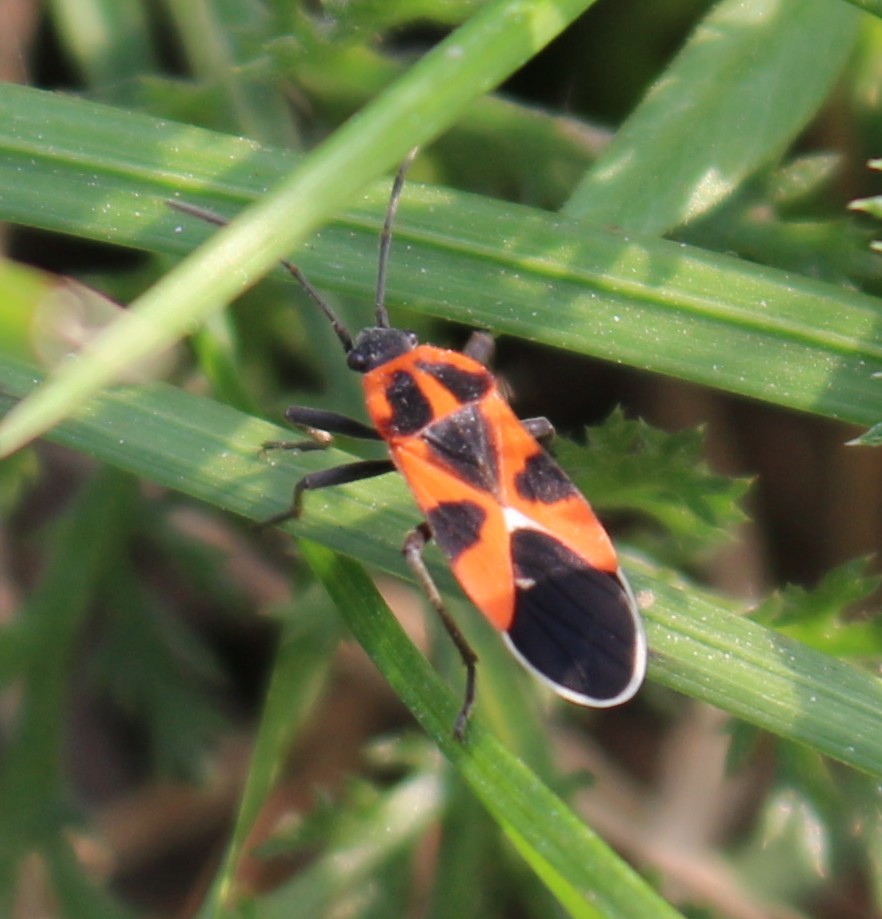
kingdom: Animalia
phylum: Arthropoda
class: Insecta
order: Hemiptera
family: Lygaeidae
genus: Tropidothorax
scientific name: Tropidothorax leucopterus
